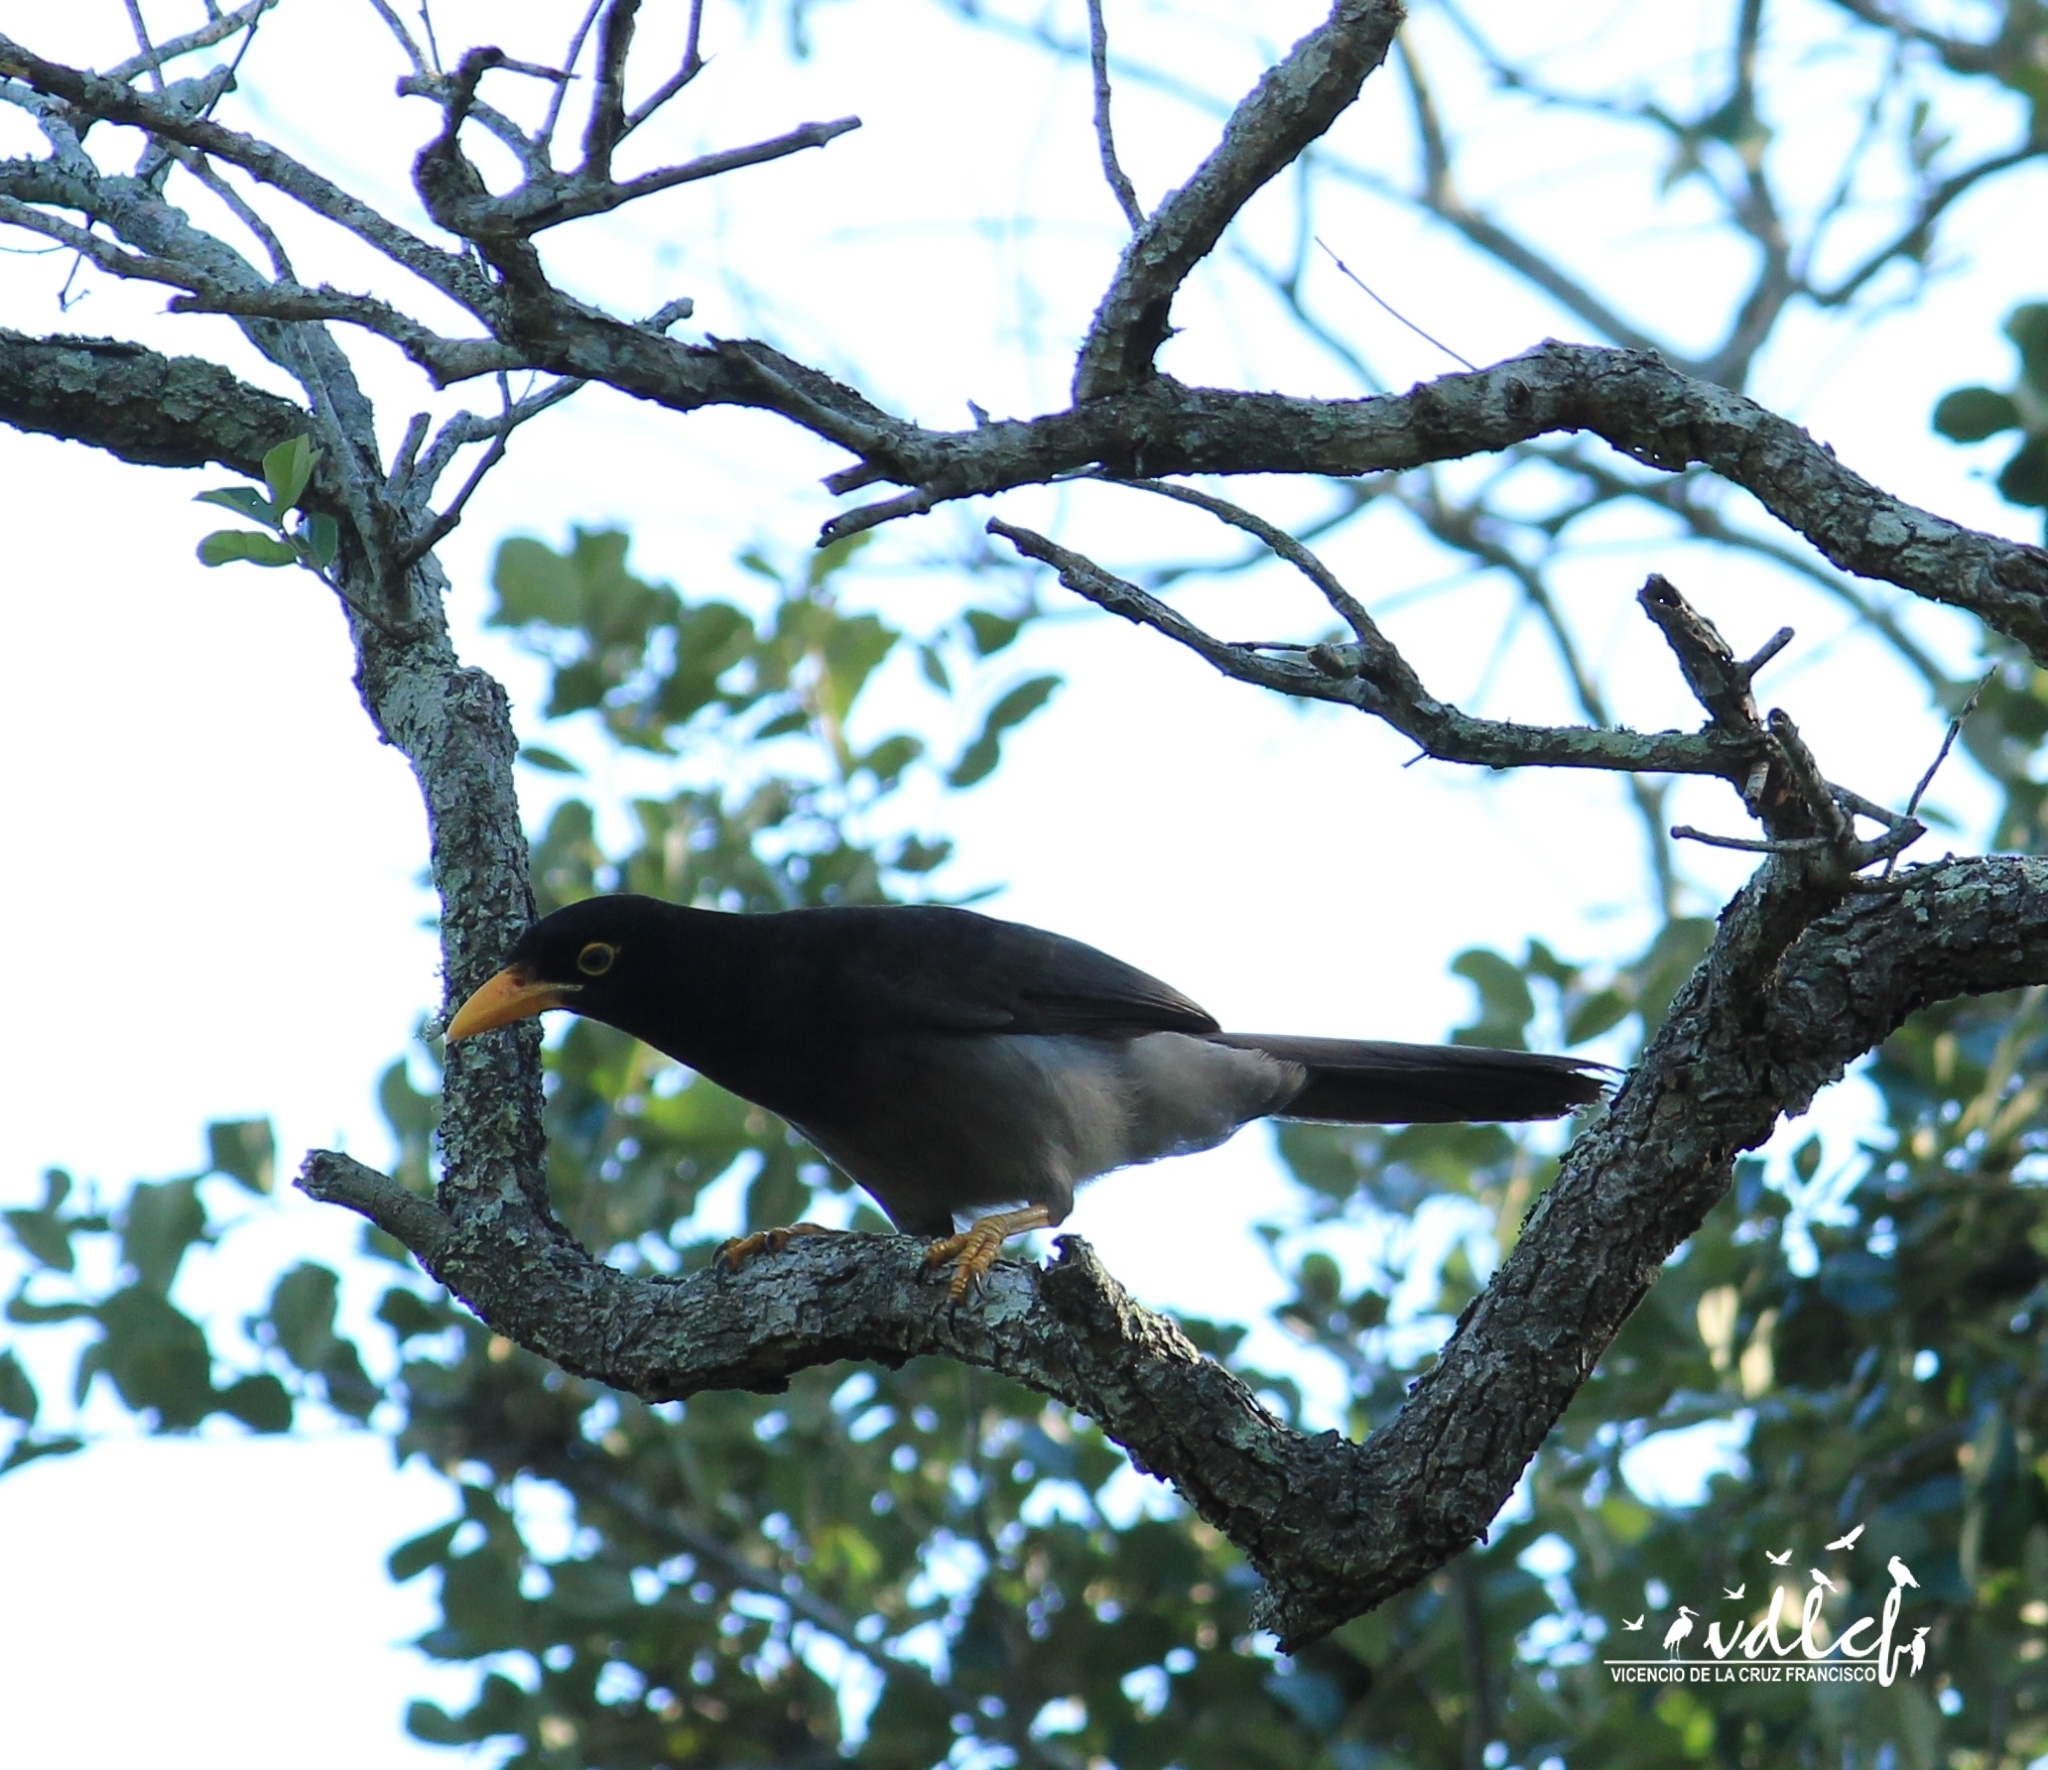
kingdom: Animalia
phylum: Chordata
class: Aves
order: Passeriformes
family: Corvidae
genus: Psilorhinus
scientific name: Psilorhinus morio
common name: Brown jay
